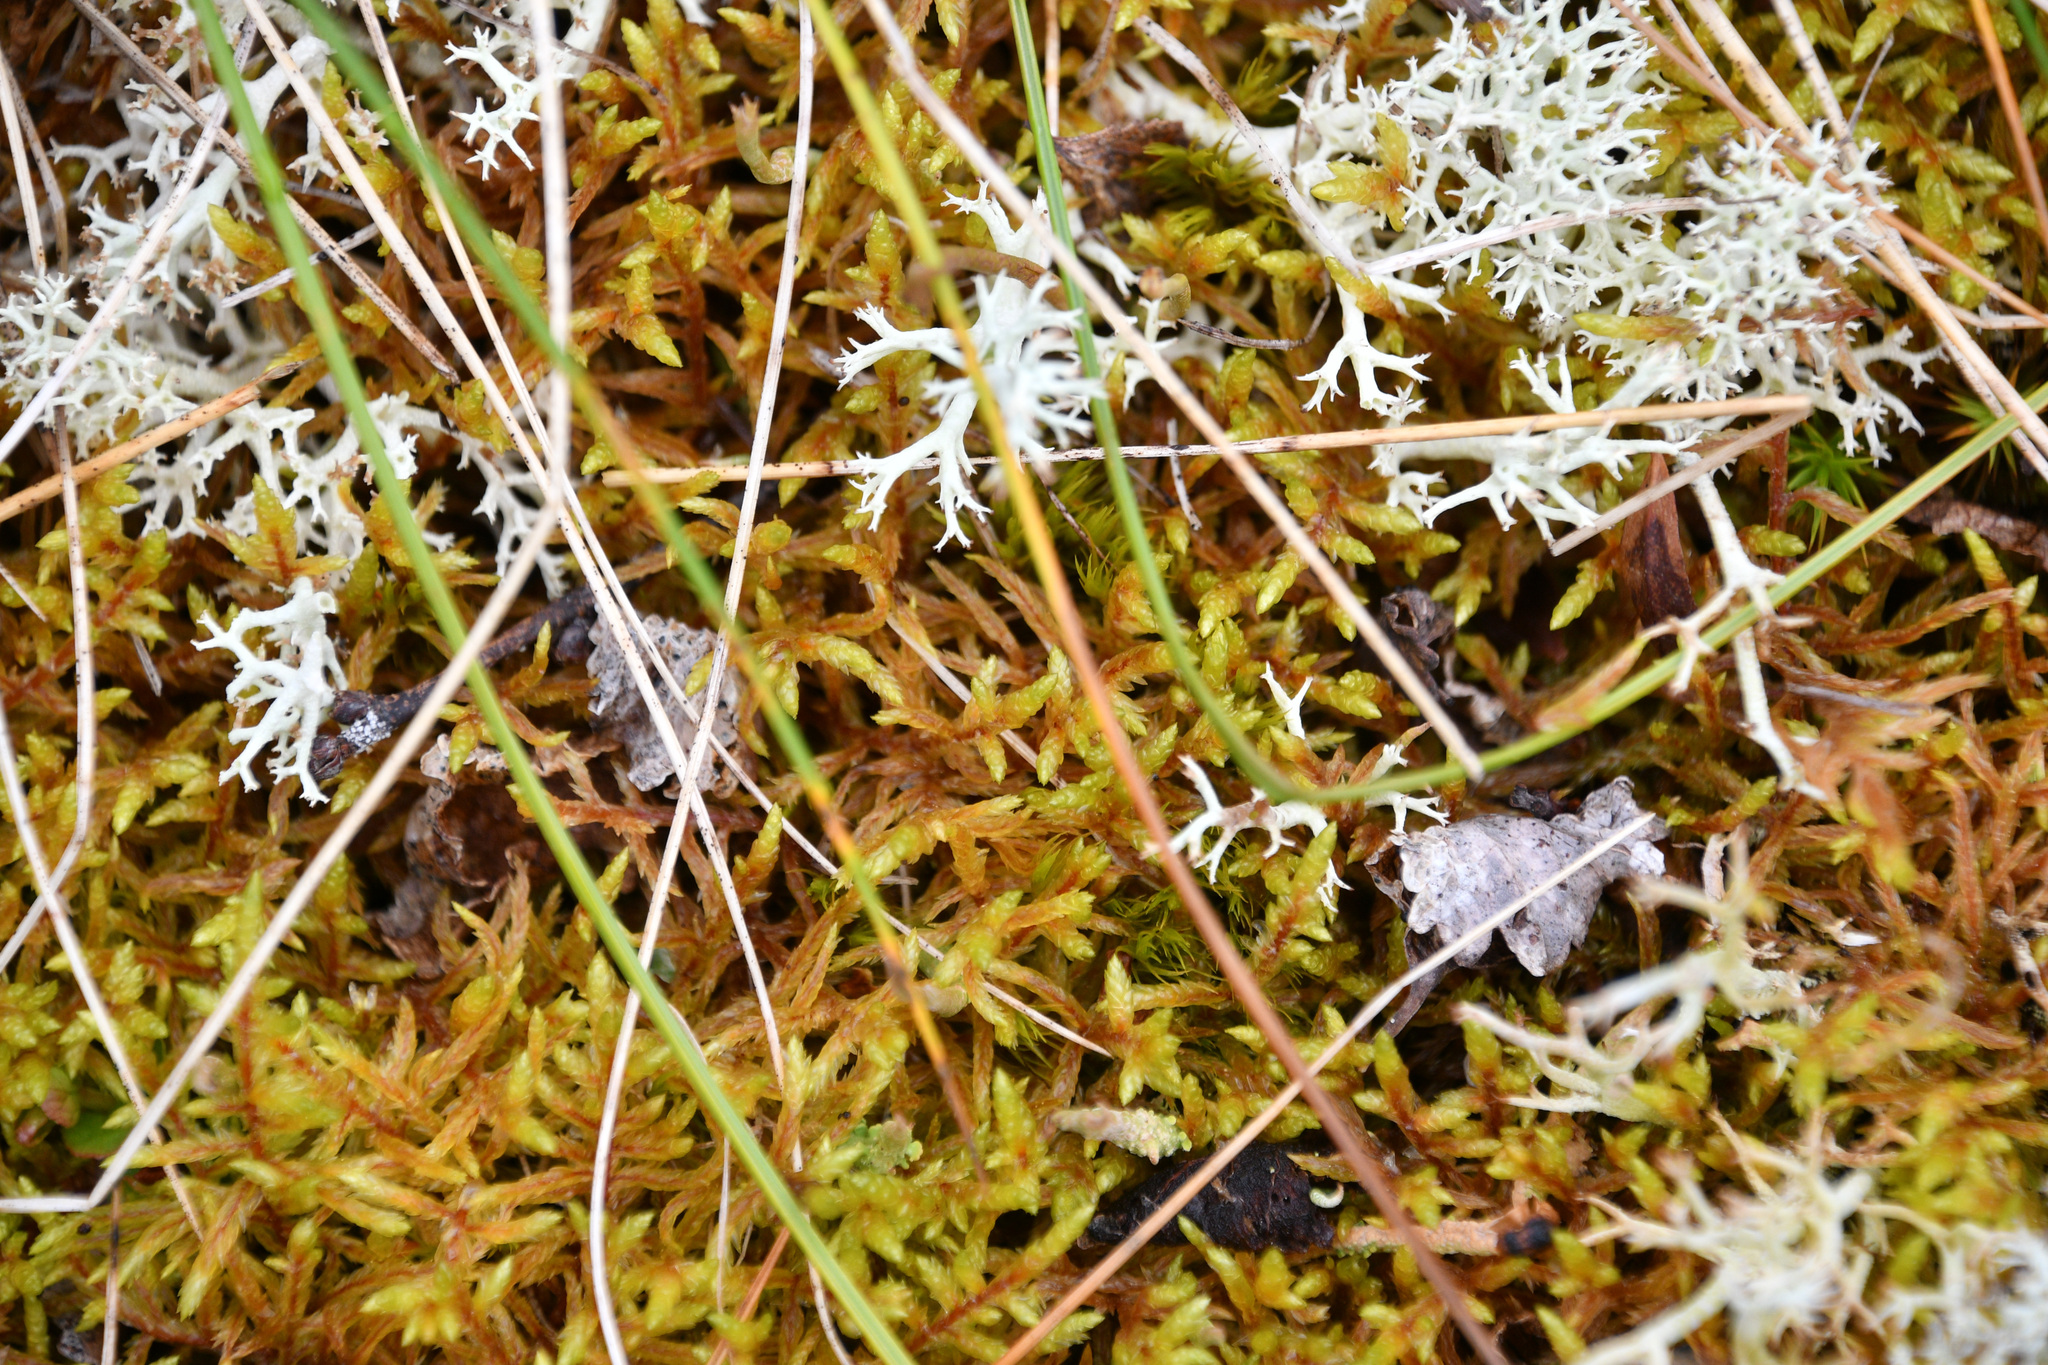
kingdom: Plantae
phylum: Bryophyta
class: Bryopsida
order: Hypnales
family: Hylocomiaceae
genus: Pleurozium
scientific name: Pleurozium schreberi
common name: Red-stemmed feather moss
